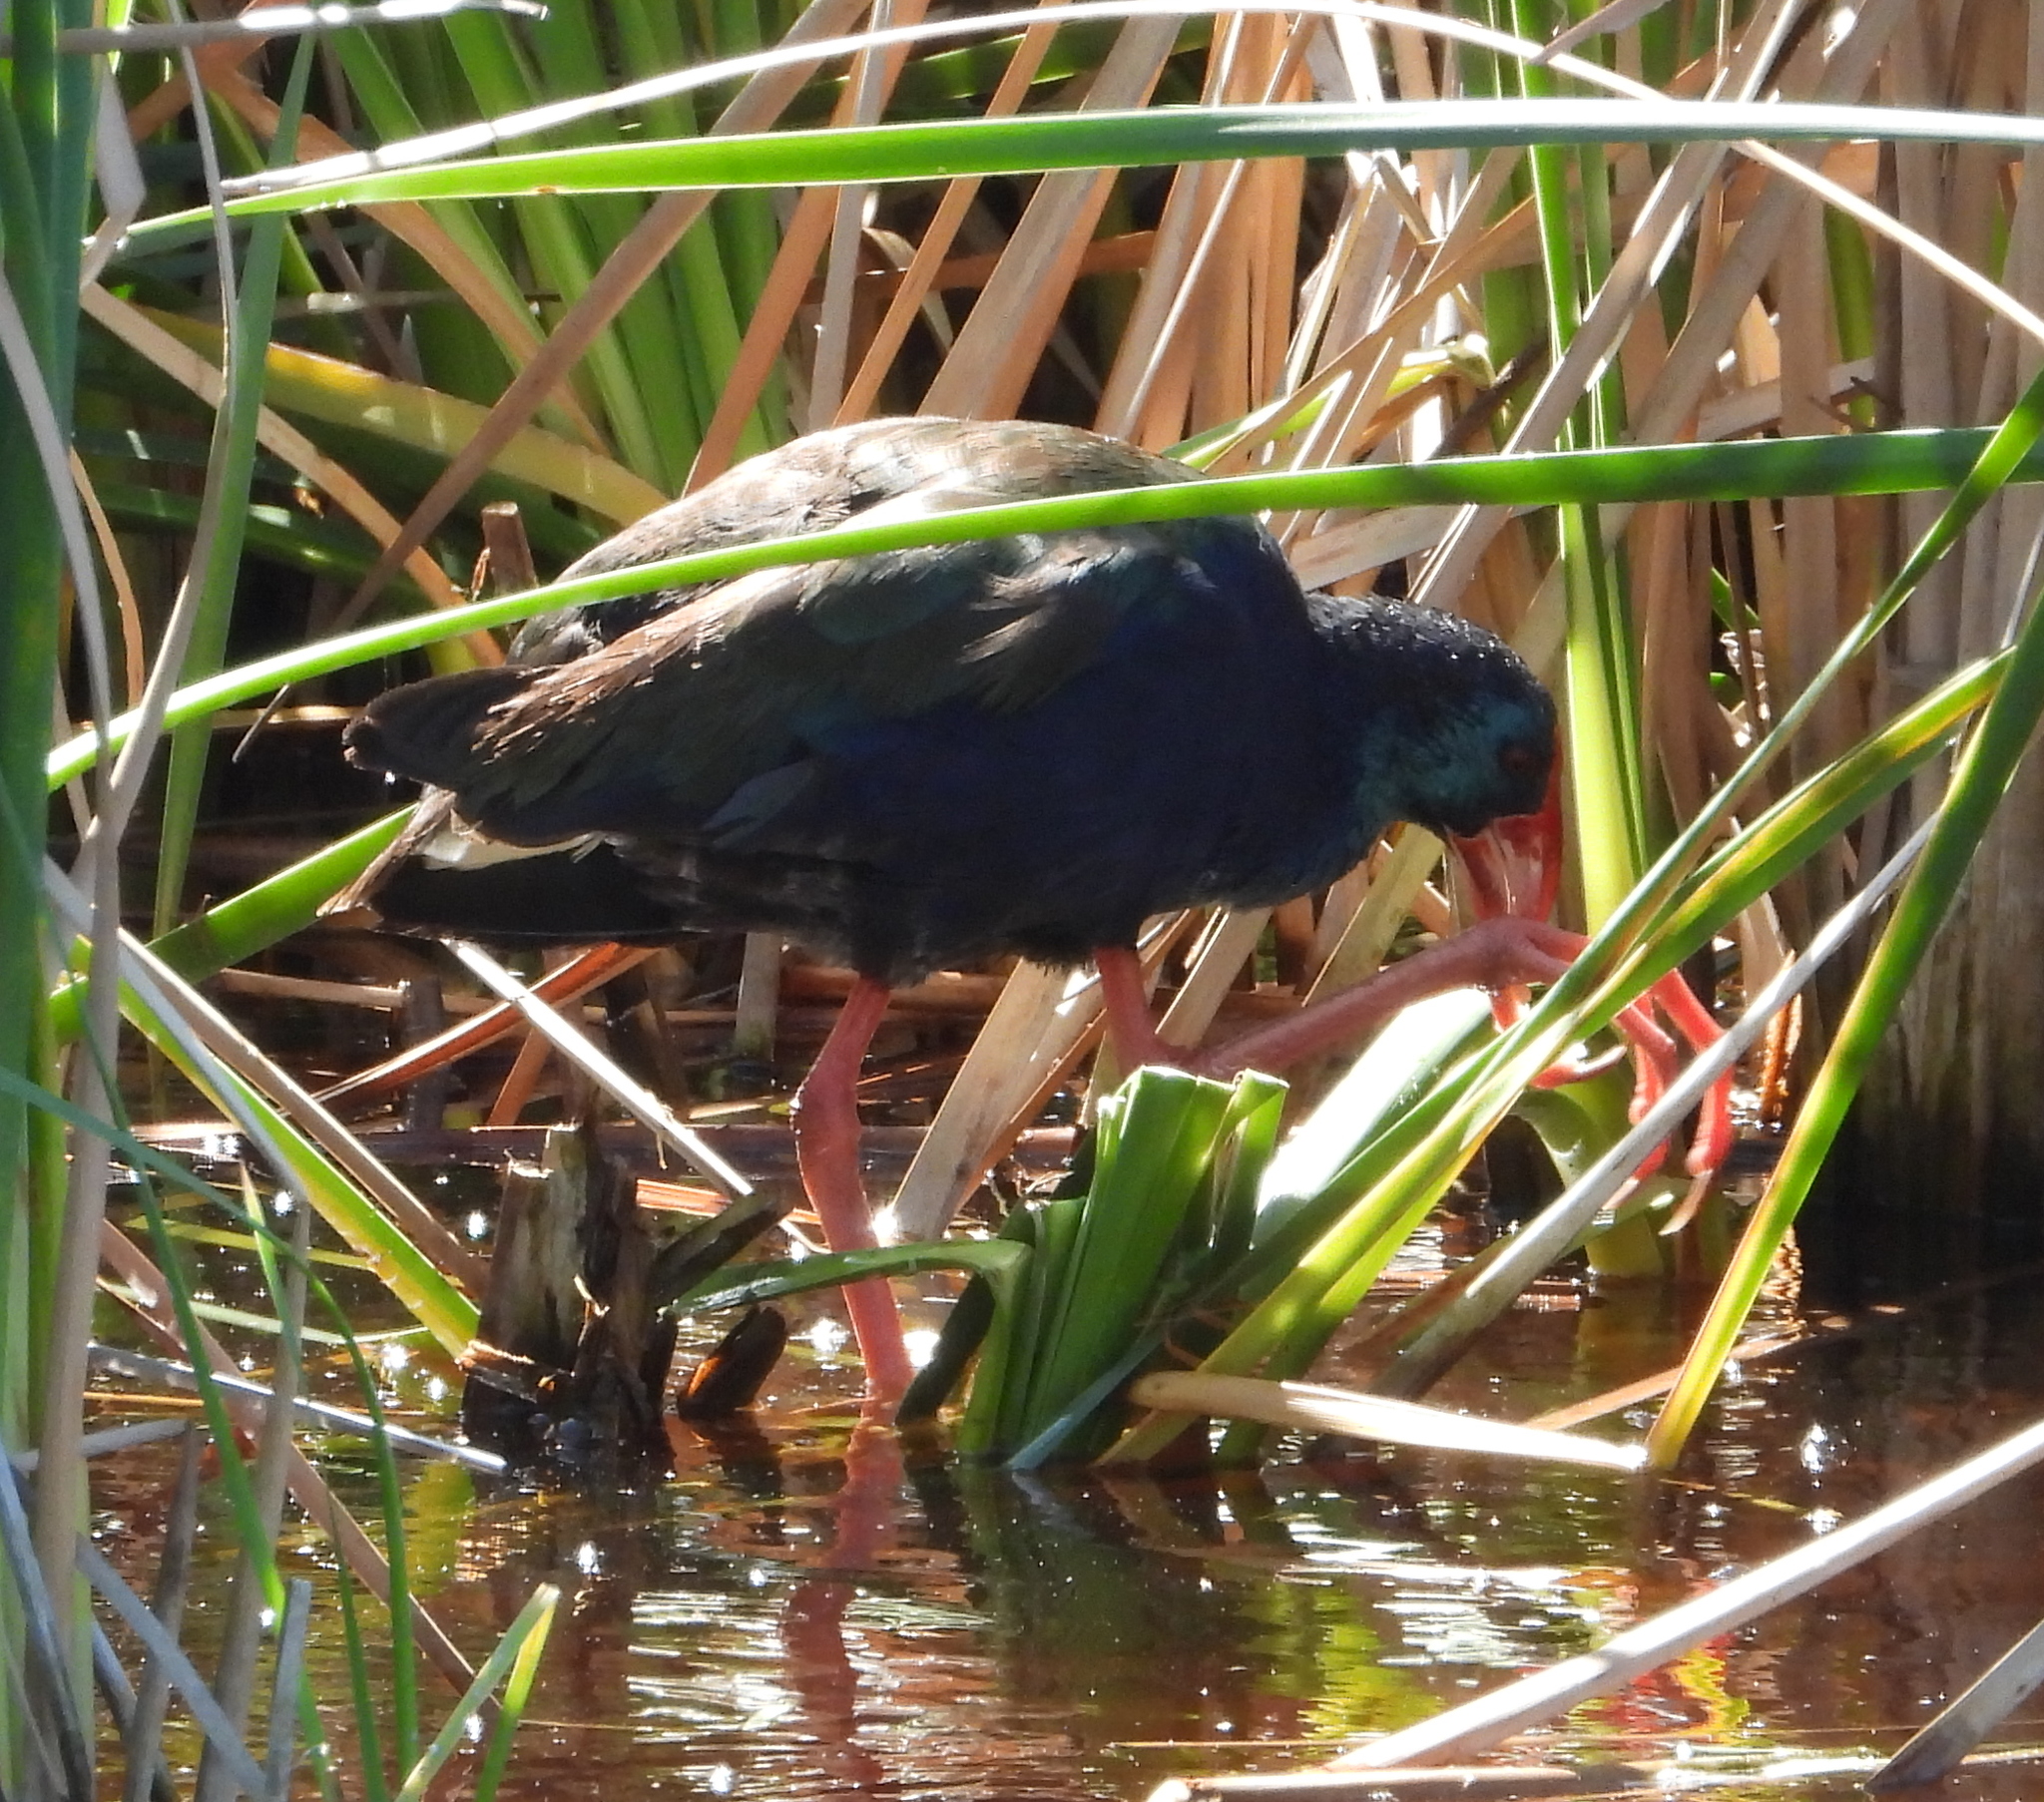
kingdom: Animalia
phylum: Chordata
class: Aves
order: Gruiformes
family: Rallidae
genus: Porphyrio
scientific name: Porphyrio porphyrio
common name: Purple swamphen
